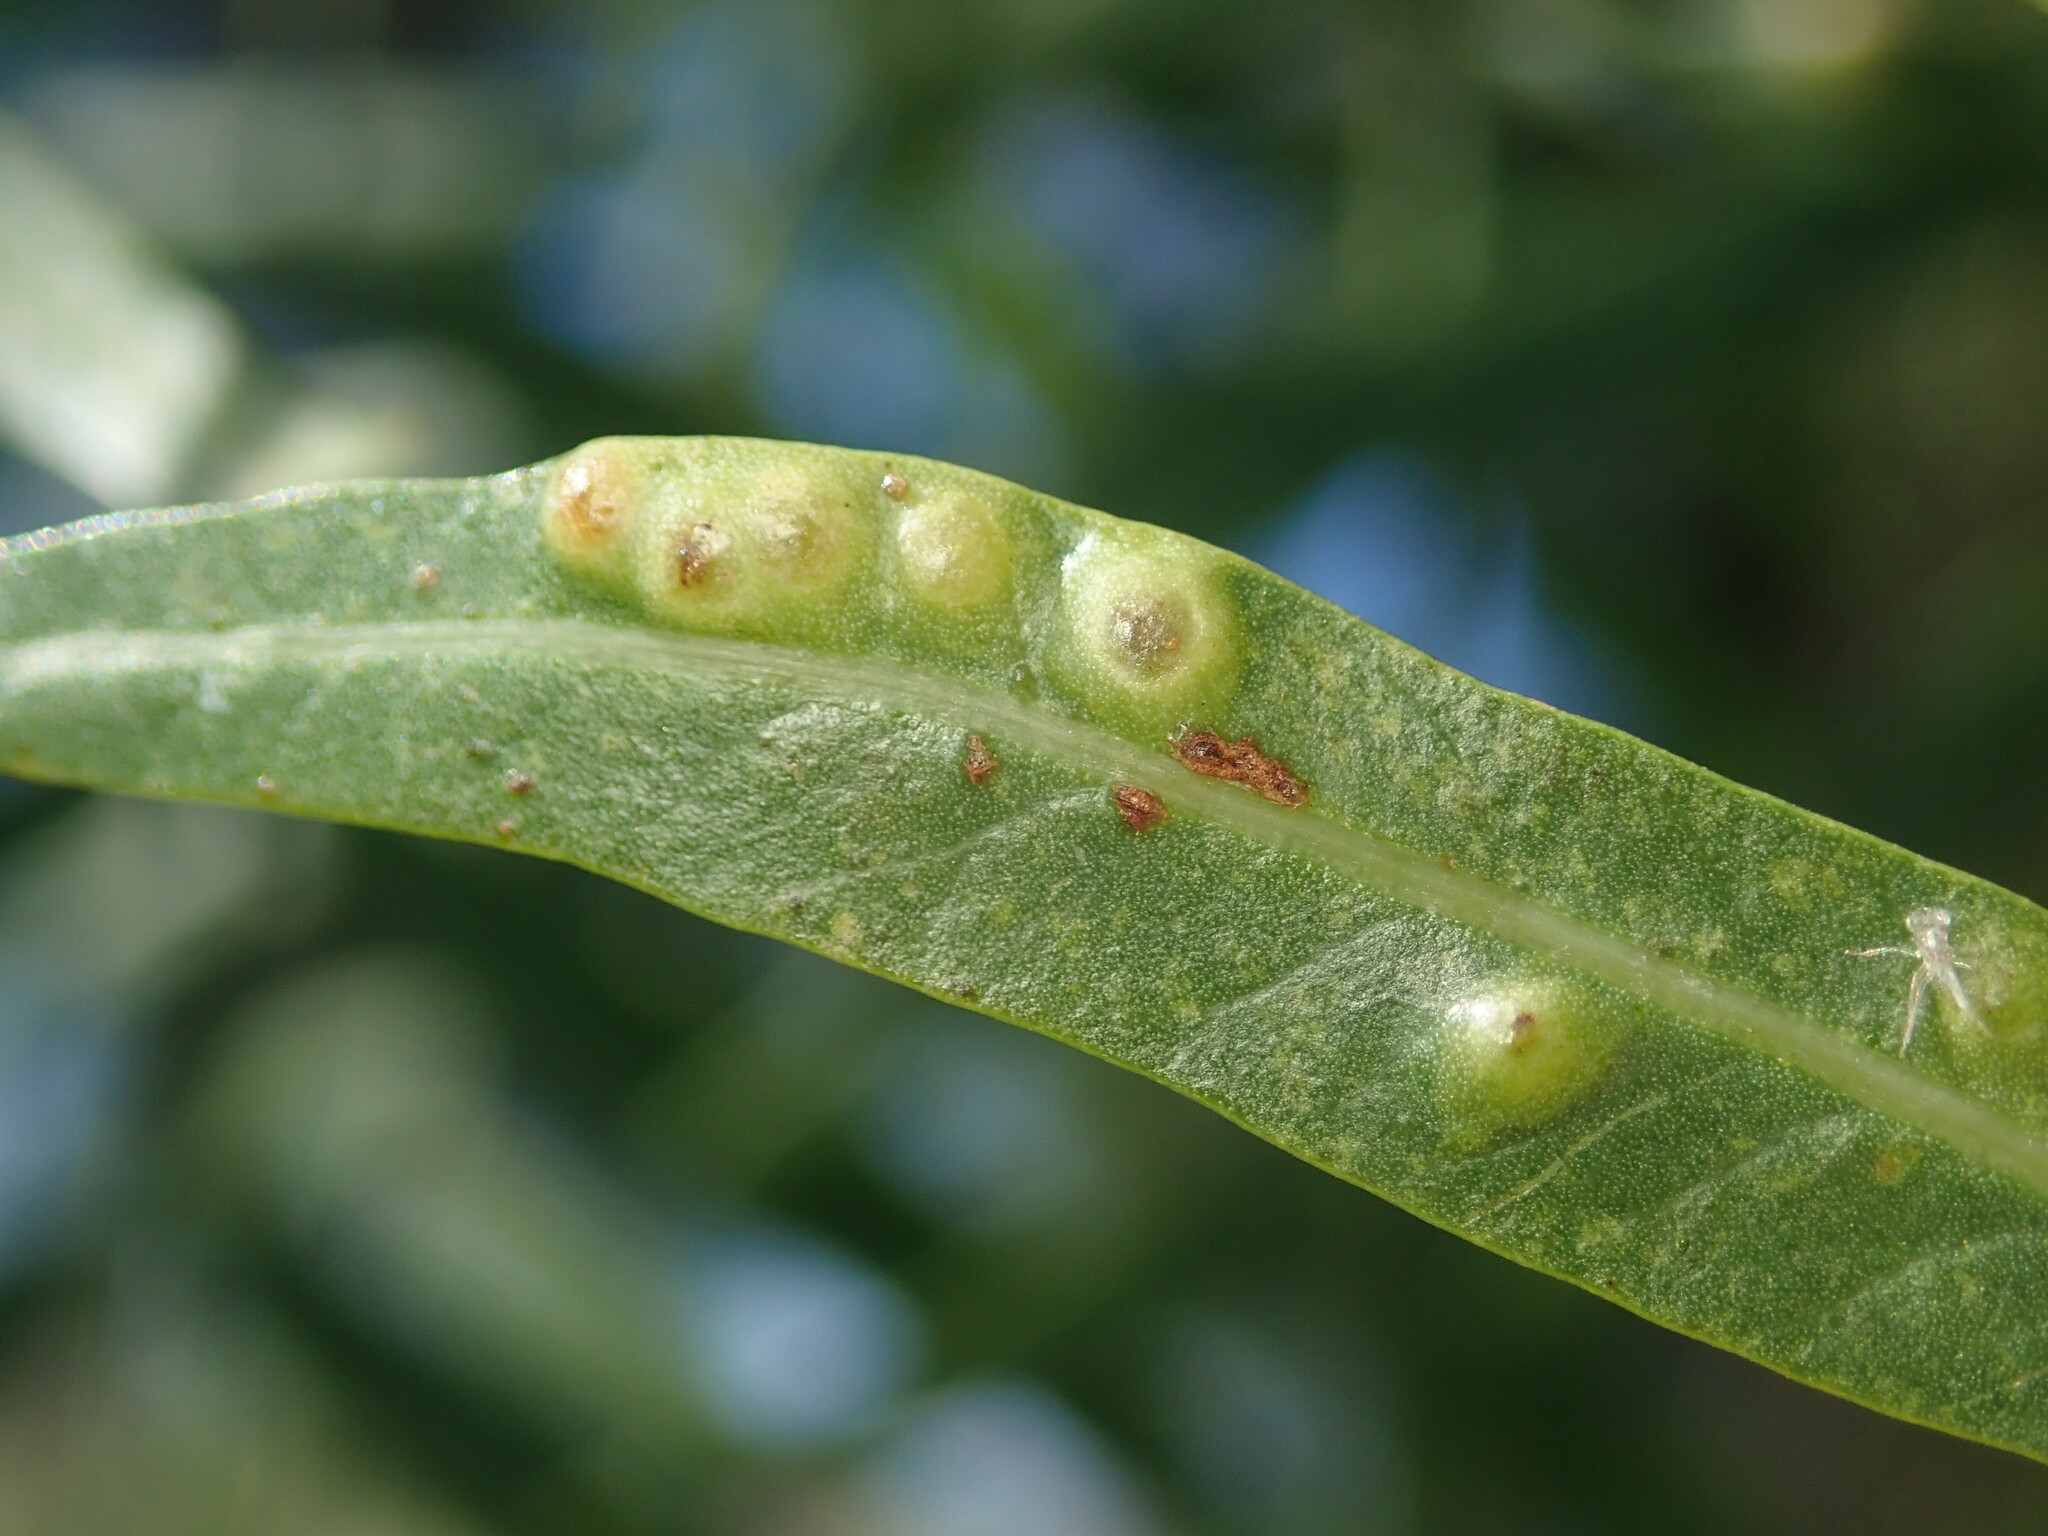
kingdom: Animalia
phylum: Arthropoda
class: Insecta
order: Hemiptera
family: Calophyidae
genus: Calophya
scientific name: Calophya schini
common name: Pepper tree psyllid
